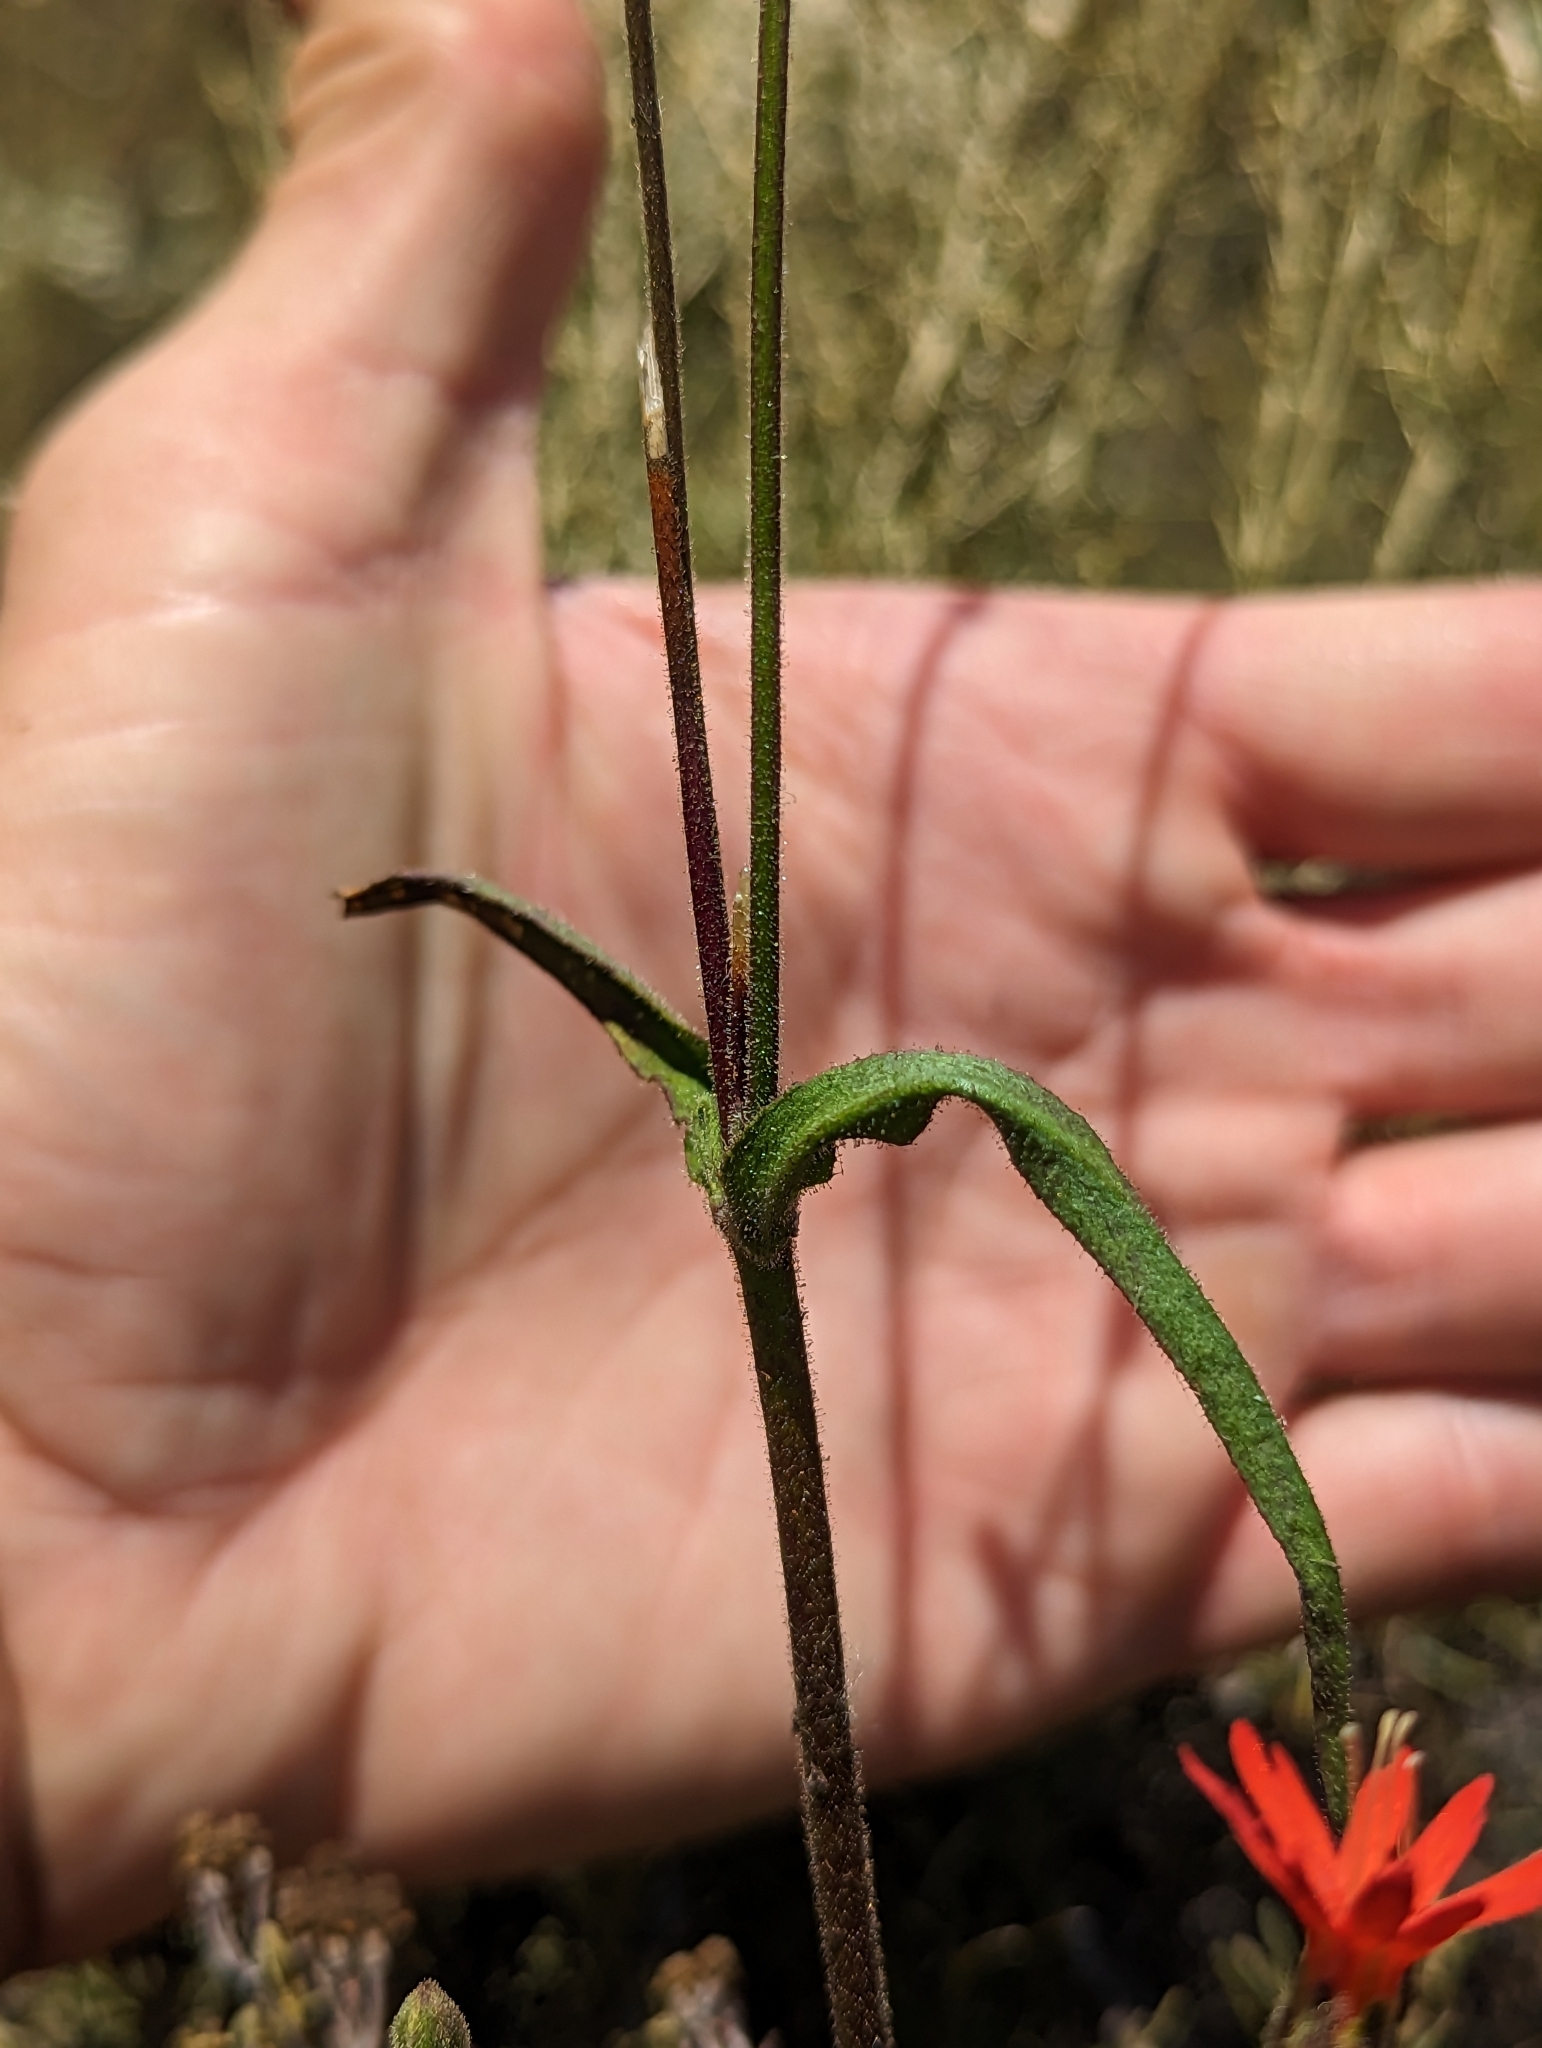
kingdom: Plantae
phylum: Tracheophyta
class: Magnoliopsida
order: Caryophyllales
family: Caryophyllaceae
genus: Silene
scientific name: Silene laciniata
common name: Indian-pink
